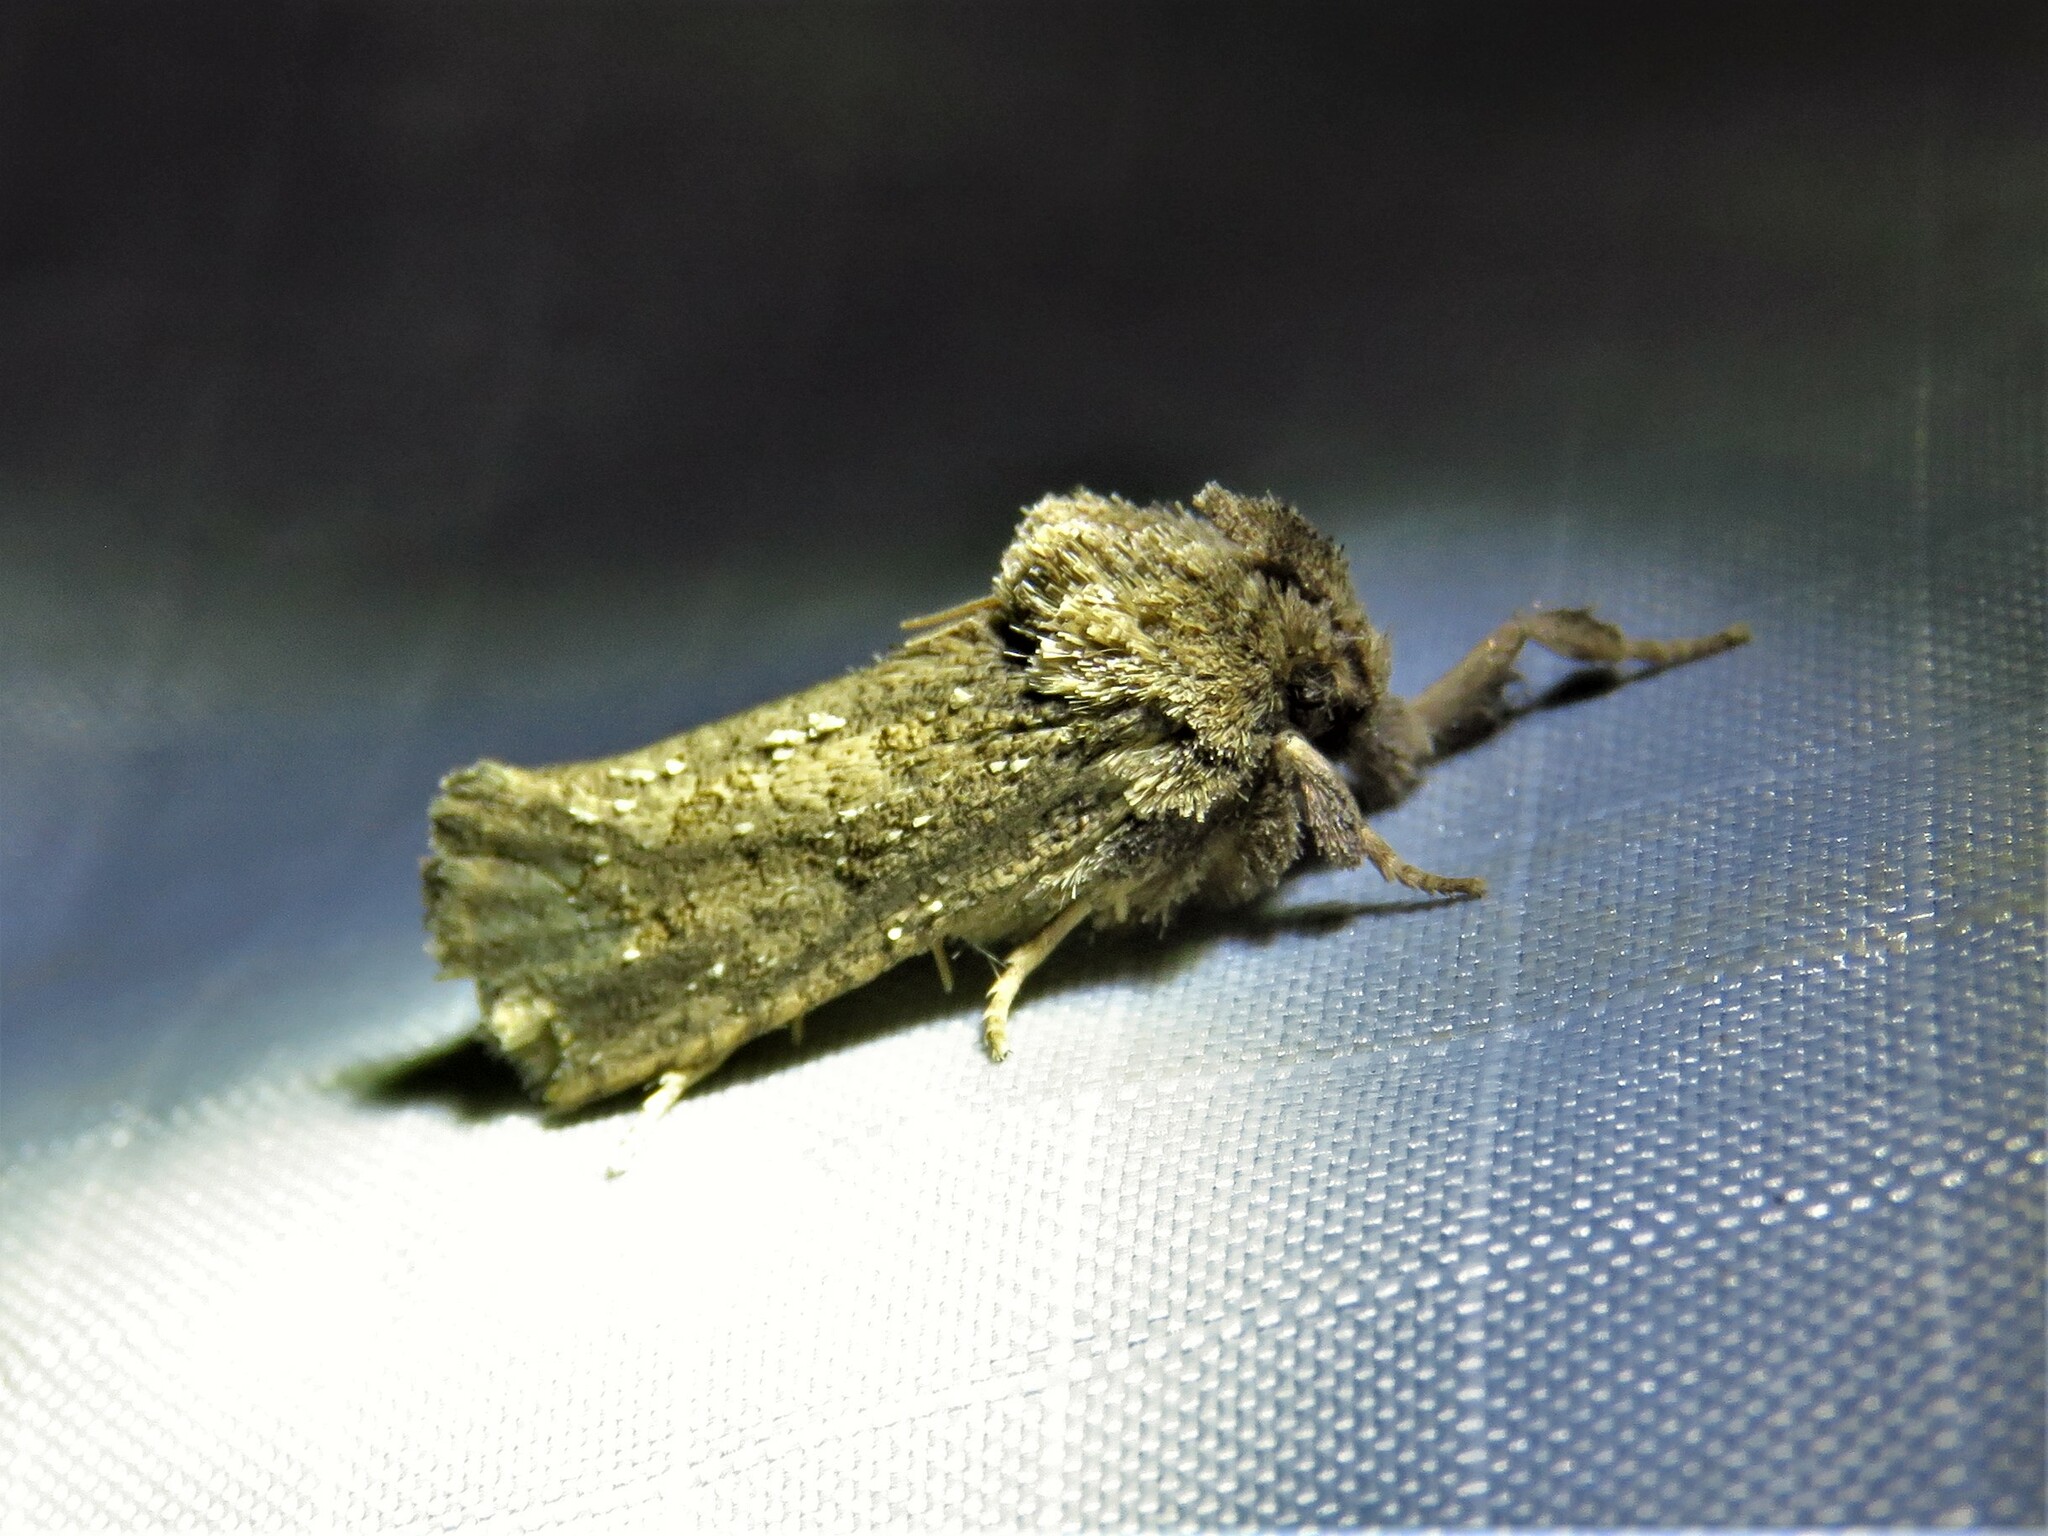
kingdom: Animalia
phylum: Arthropoda
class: Insecta
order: Lepidoptera
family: Tineidae
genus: Acrolophus
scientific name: Acrolophus arcanella
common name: Arcane grass tubeworm moth
